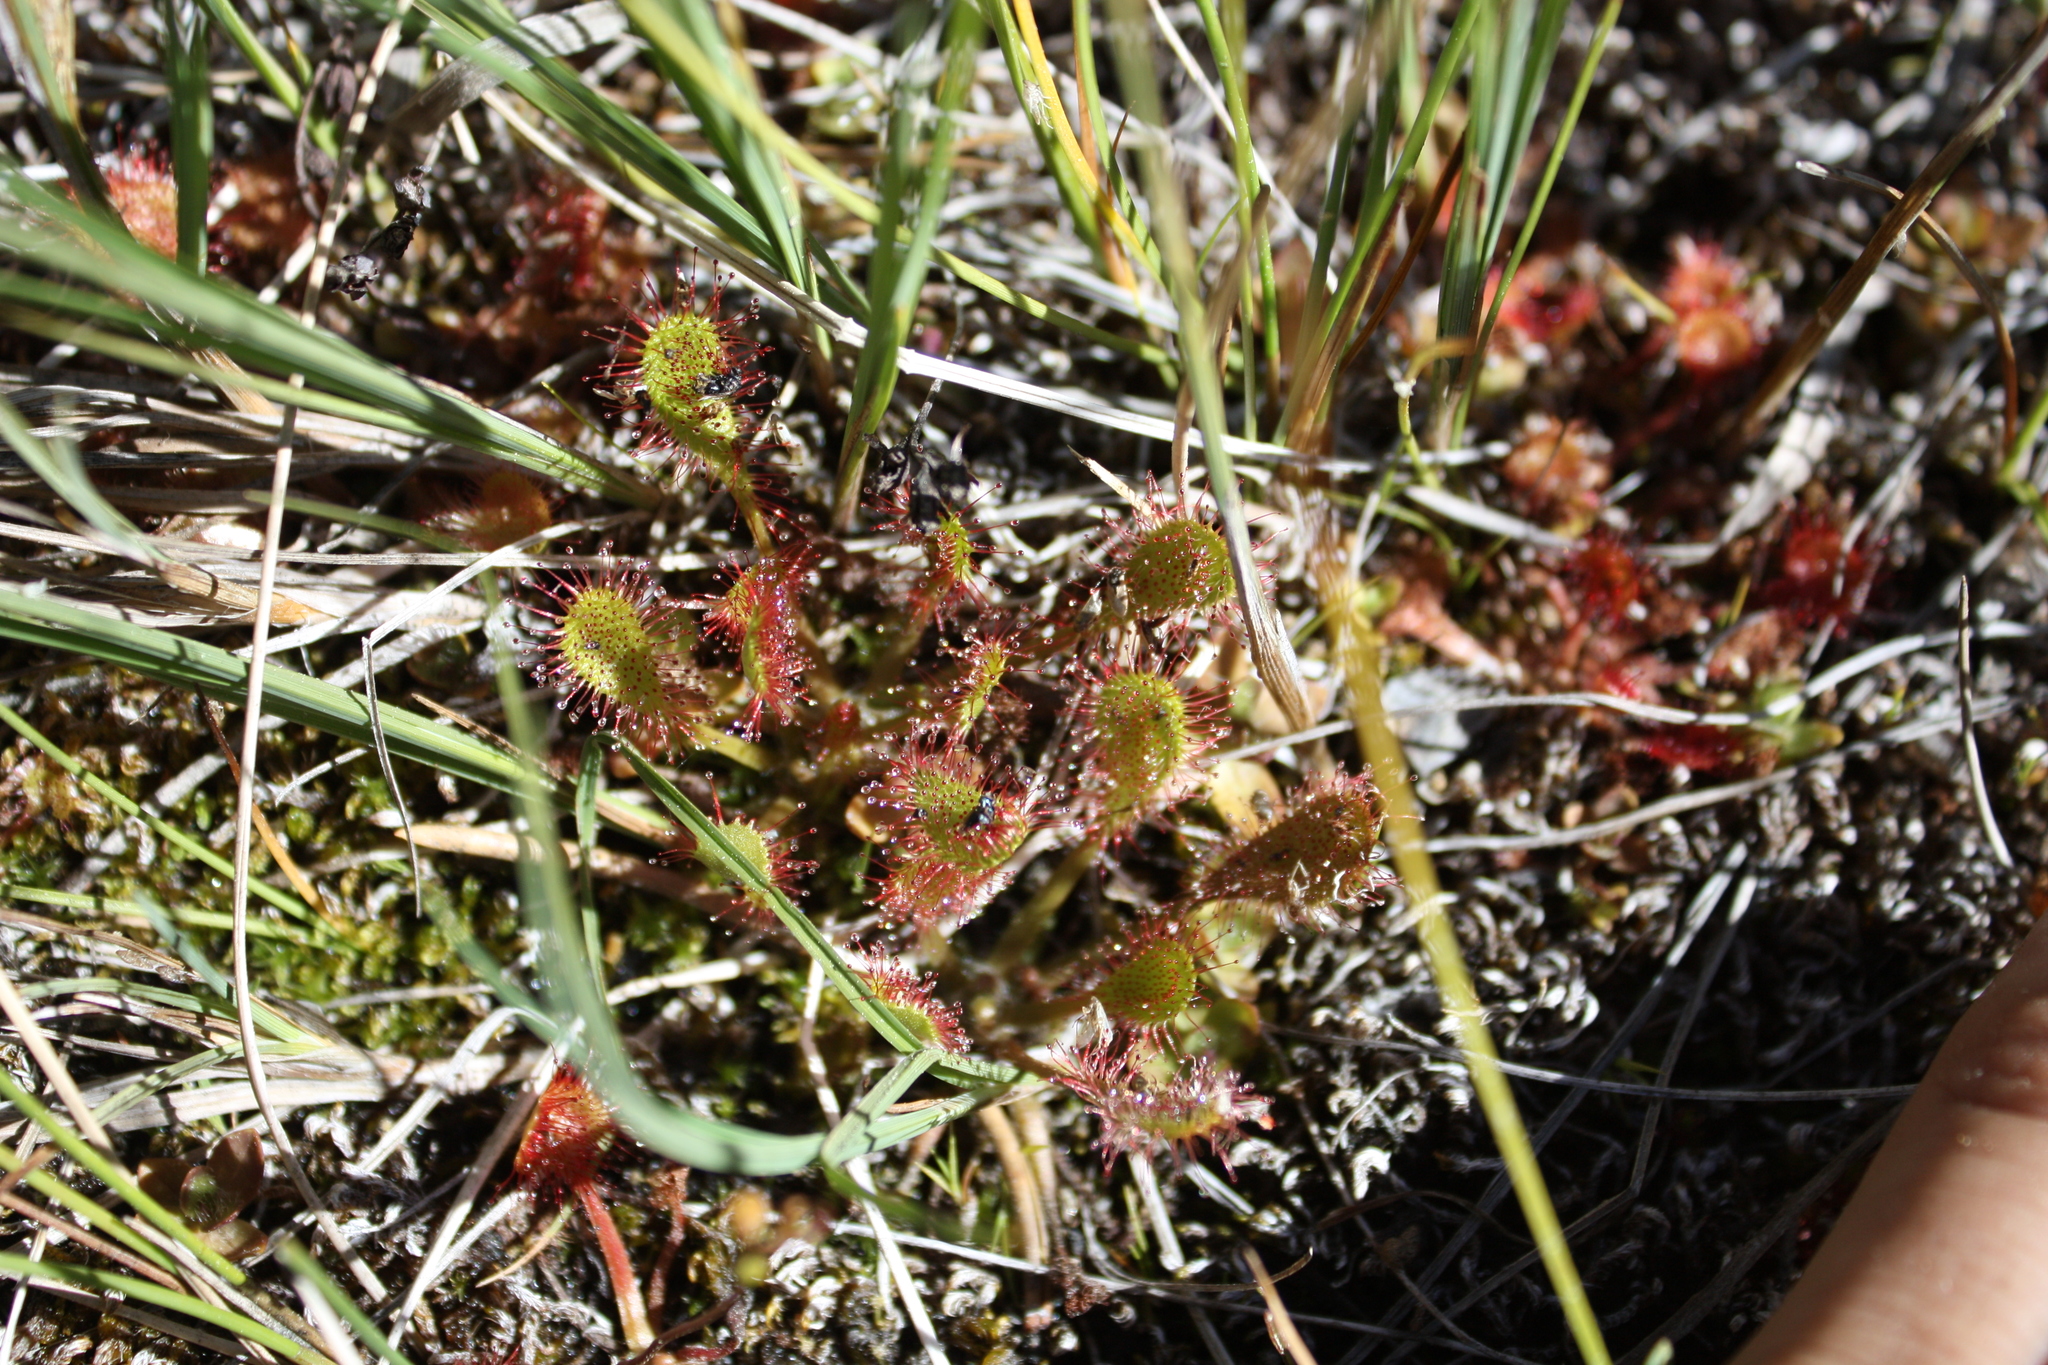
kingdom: Plantae
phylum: Tracheophyta
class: Magnoliopsida
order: Caryophyllales
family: Droseraceae
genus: Drosera
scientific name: Drosera anglica
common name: Great sundew
